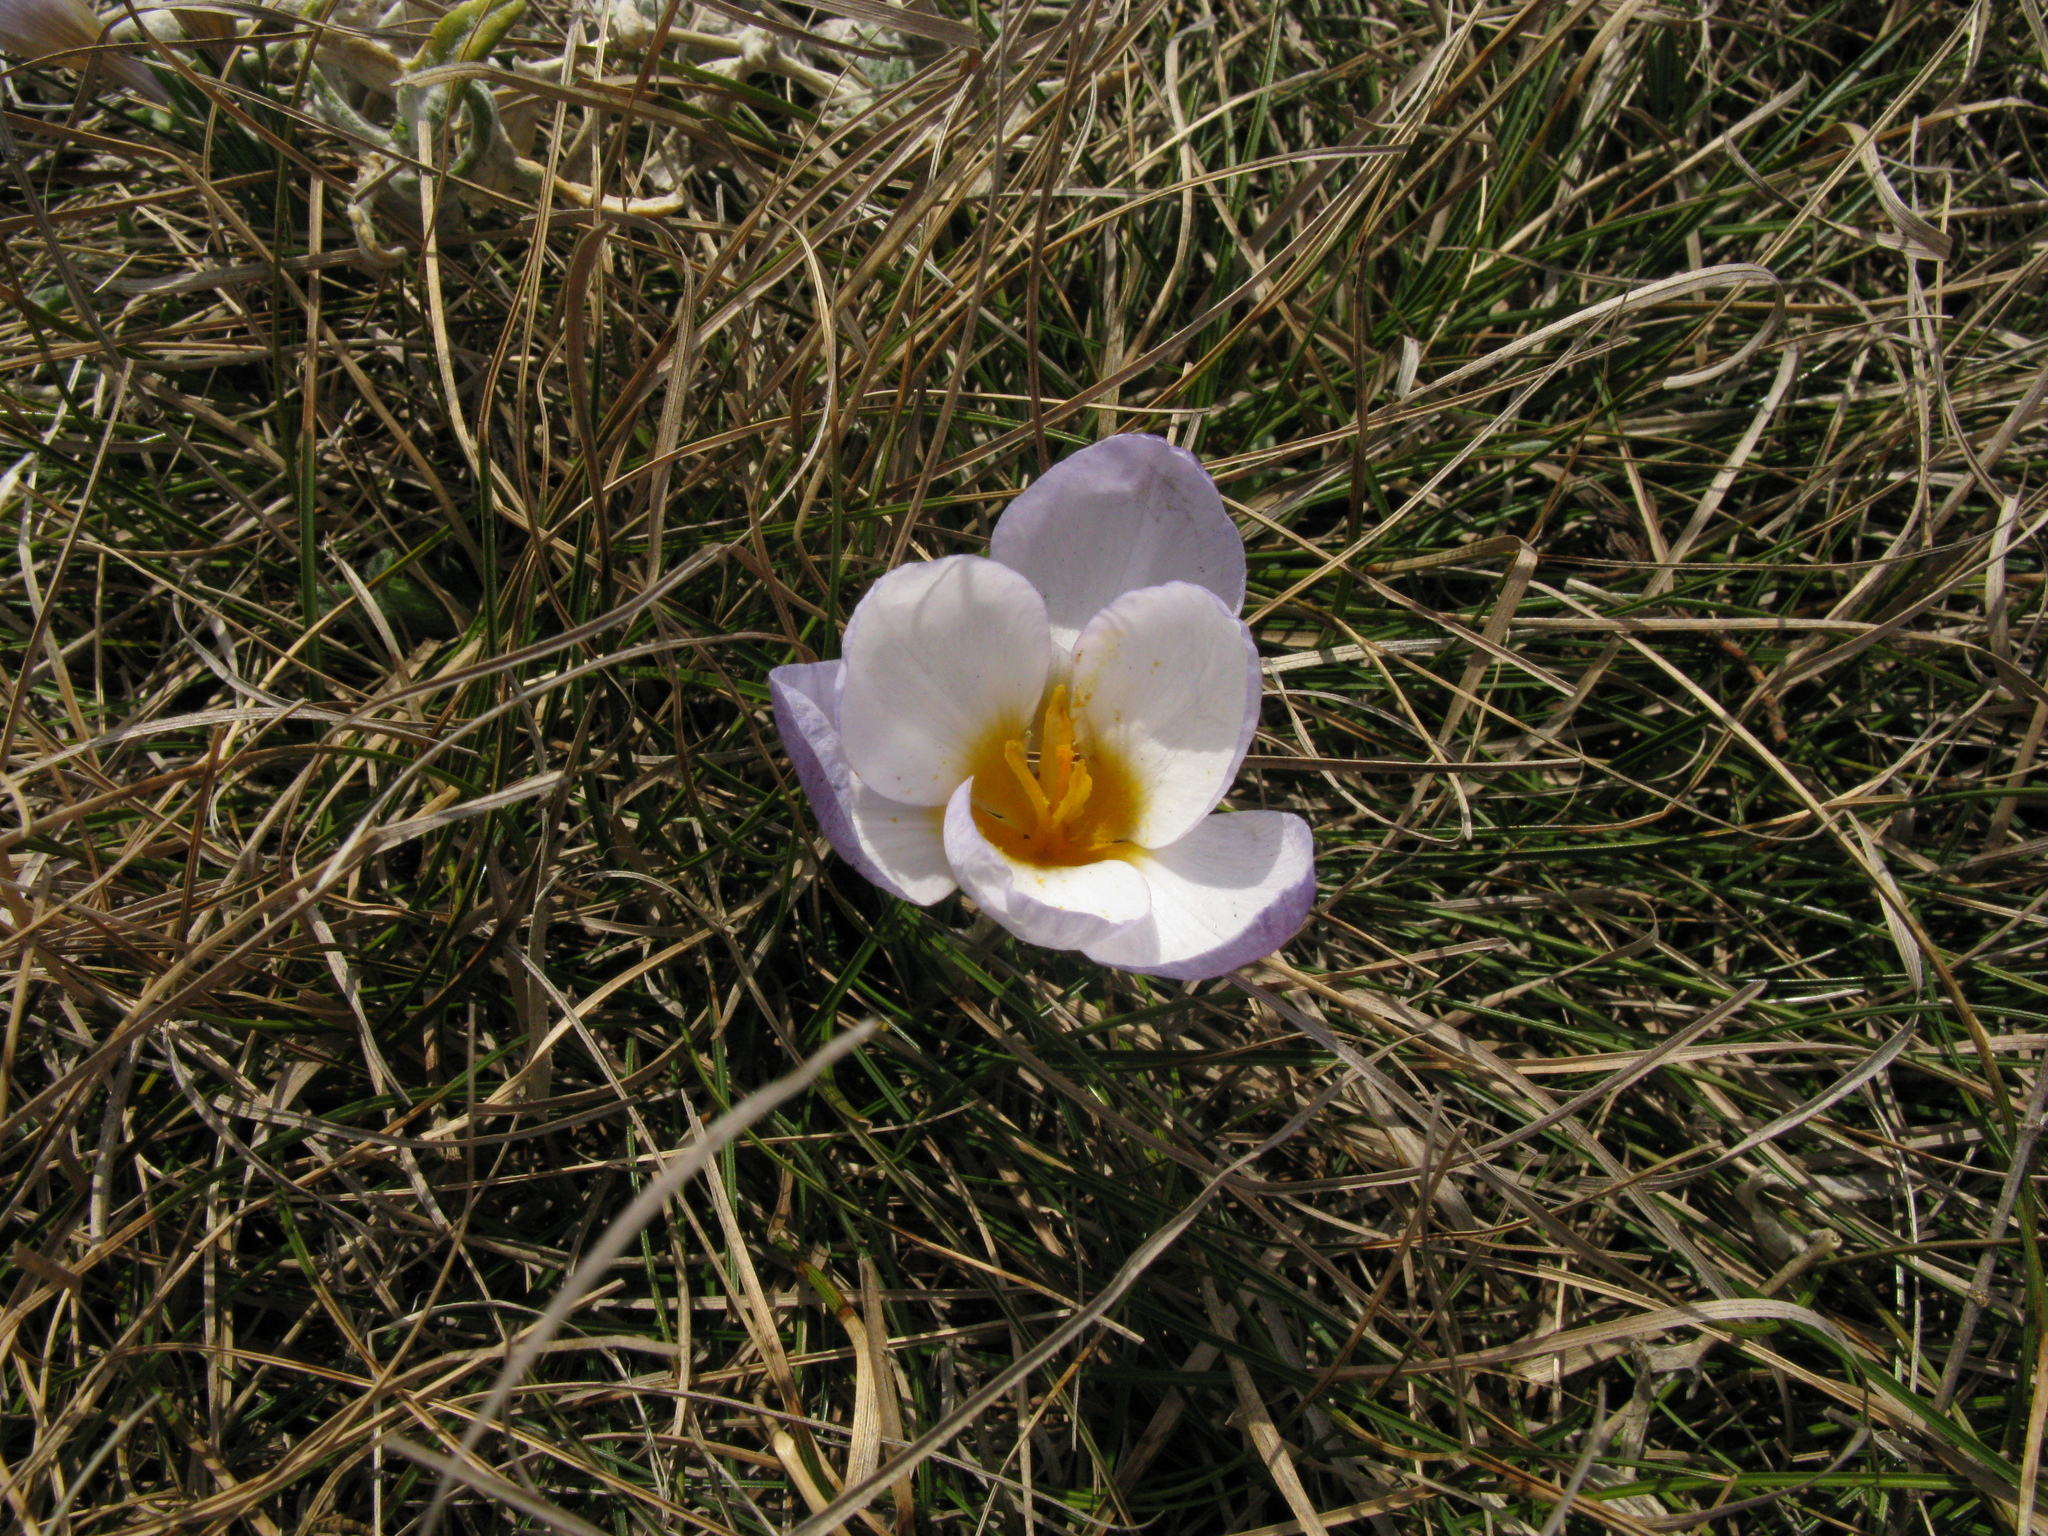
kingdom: Plantae
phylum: Tracheophyta
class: Liliopsida
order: Asparagales
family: Iridaceae
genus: Crocus
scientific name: Crocus tauricus
